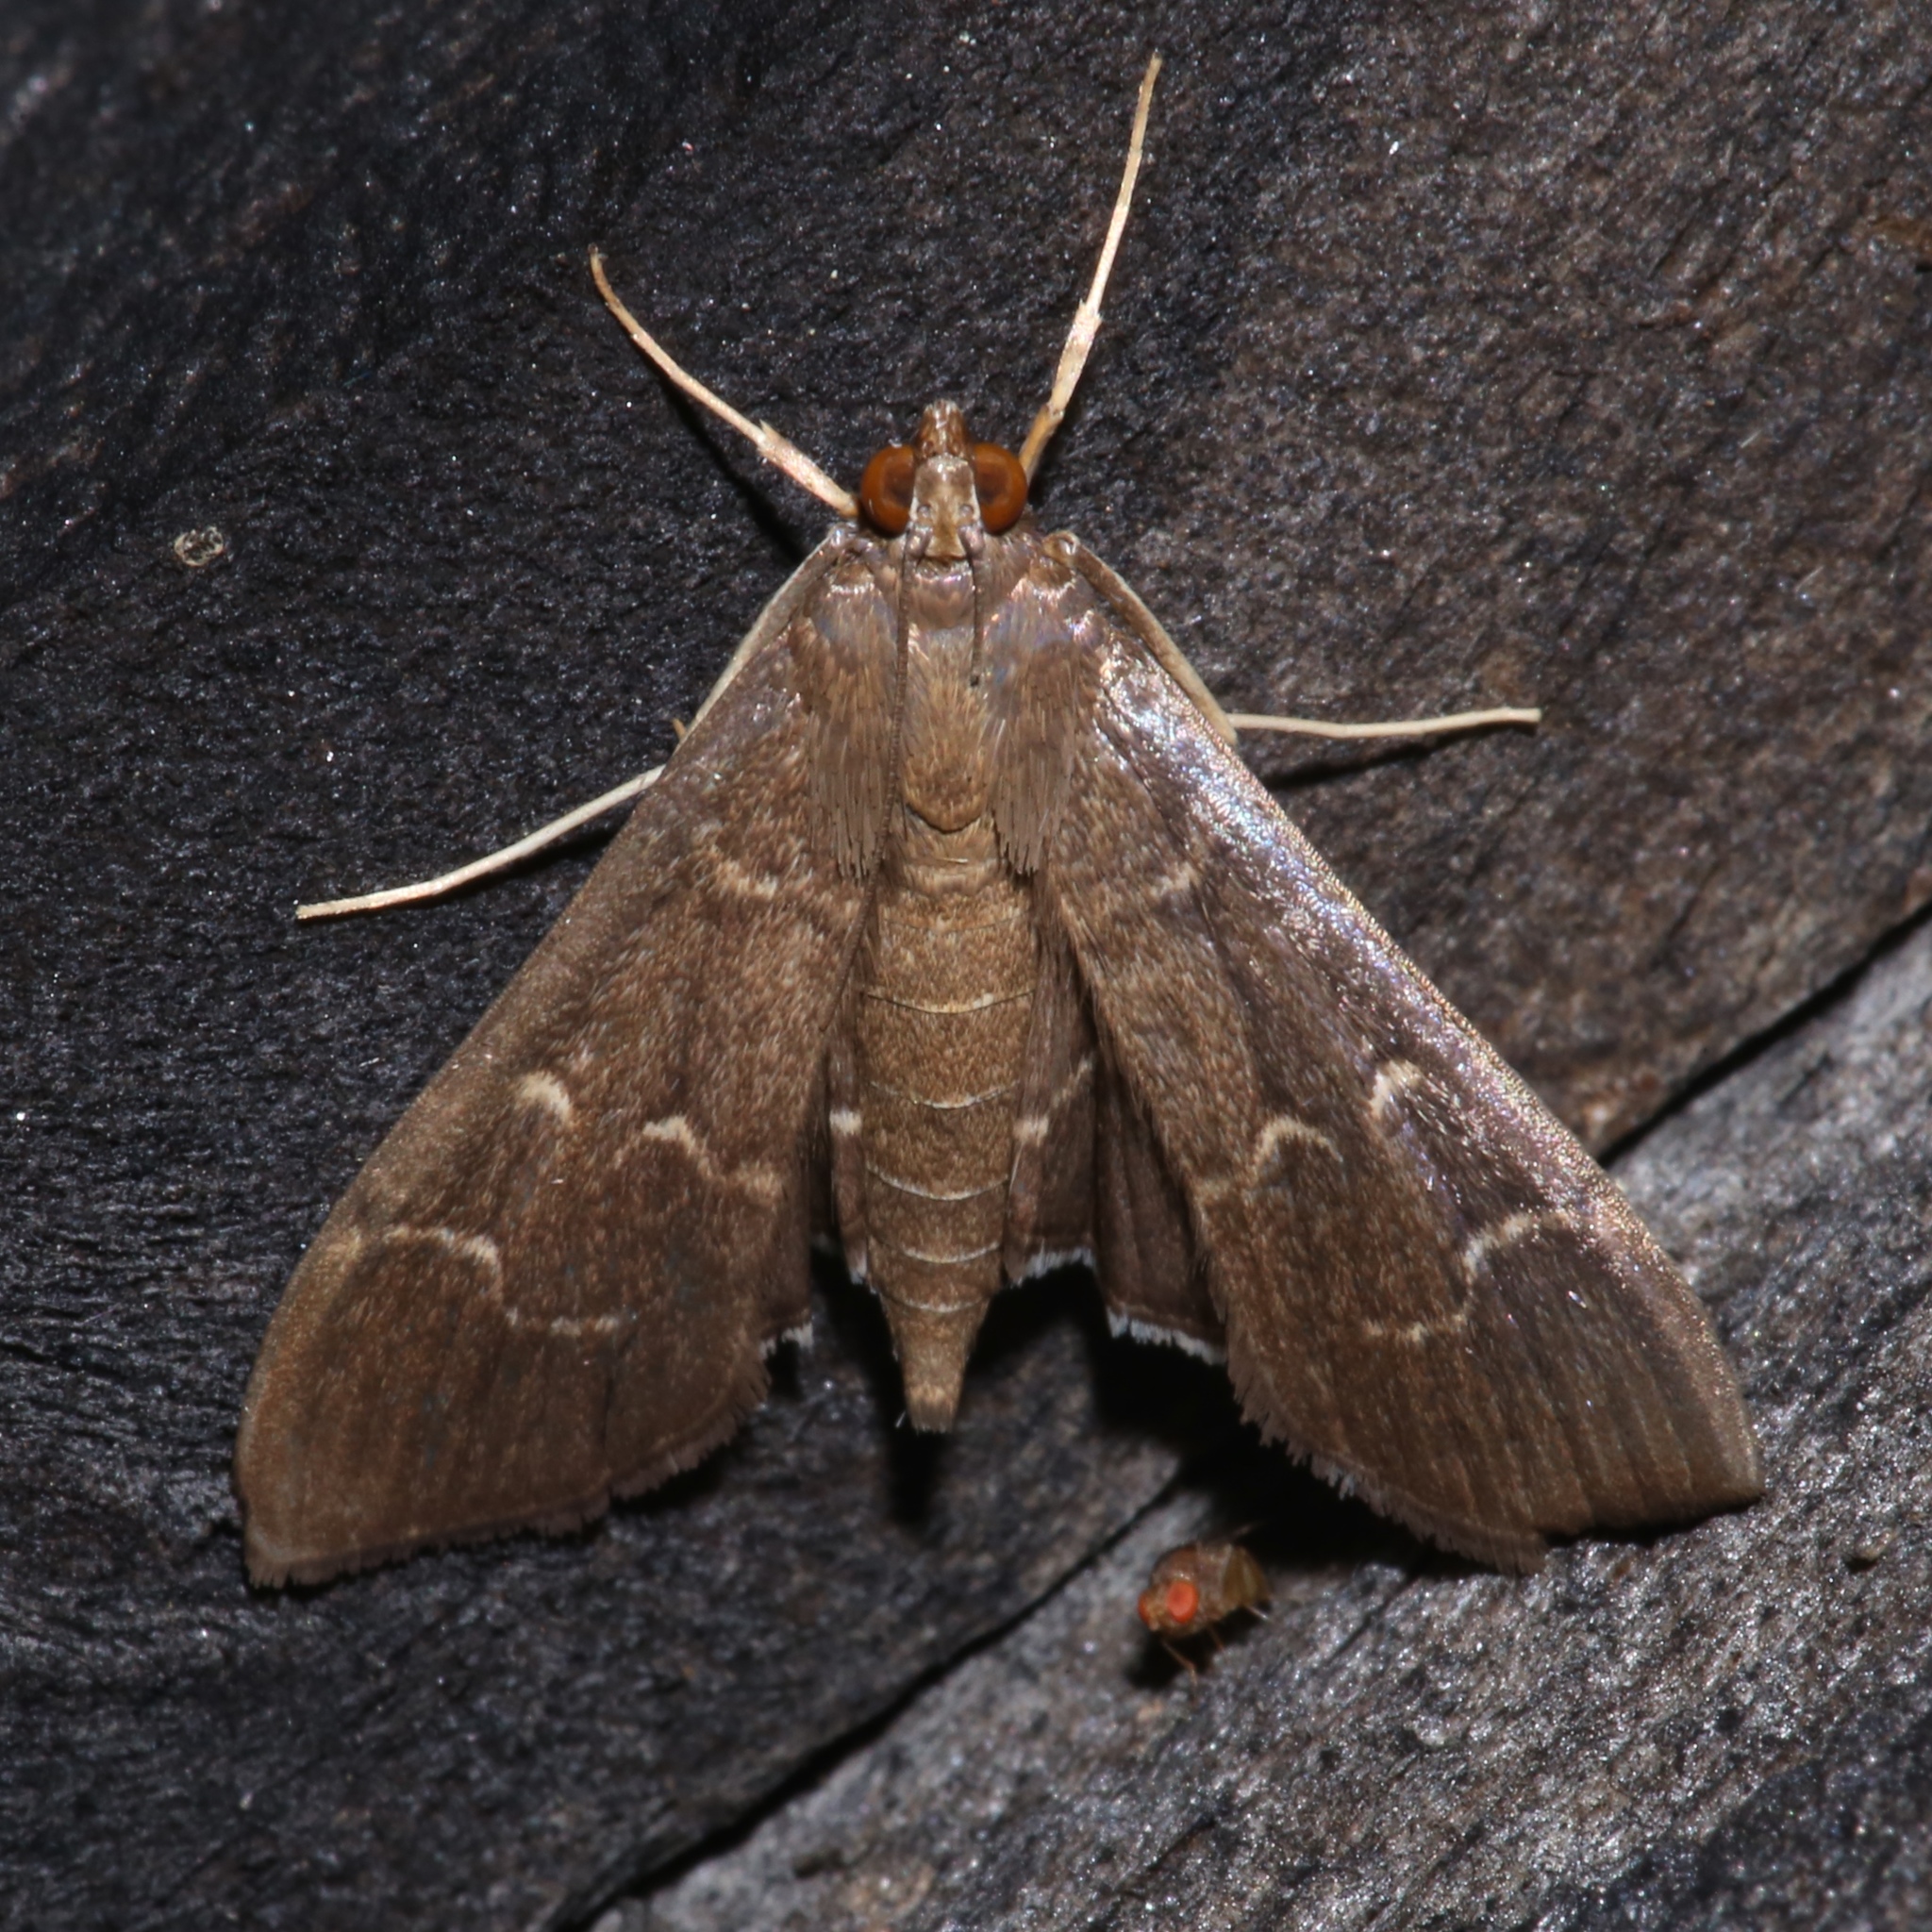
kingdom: Animalia
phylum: Arthropoda
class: Insecta
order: Lepidoptera
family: Crambidae
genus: Pilocrocis
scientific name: Pilocrocis ramentalis
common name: Scraped pilocrocis
